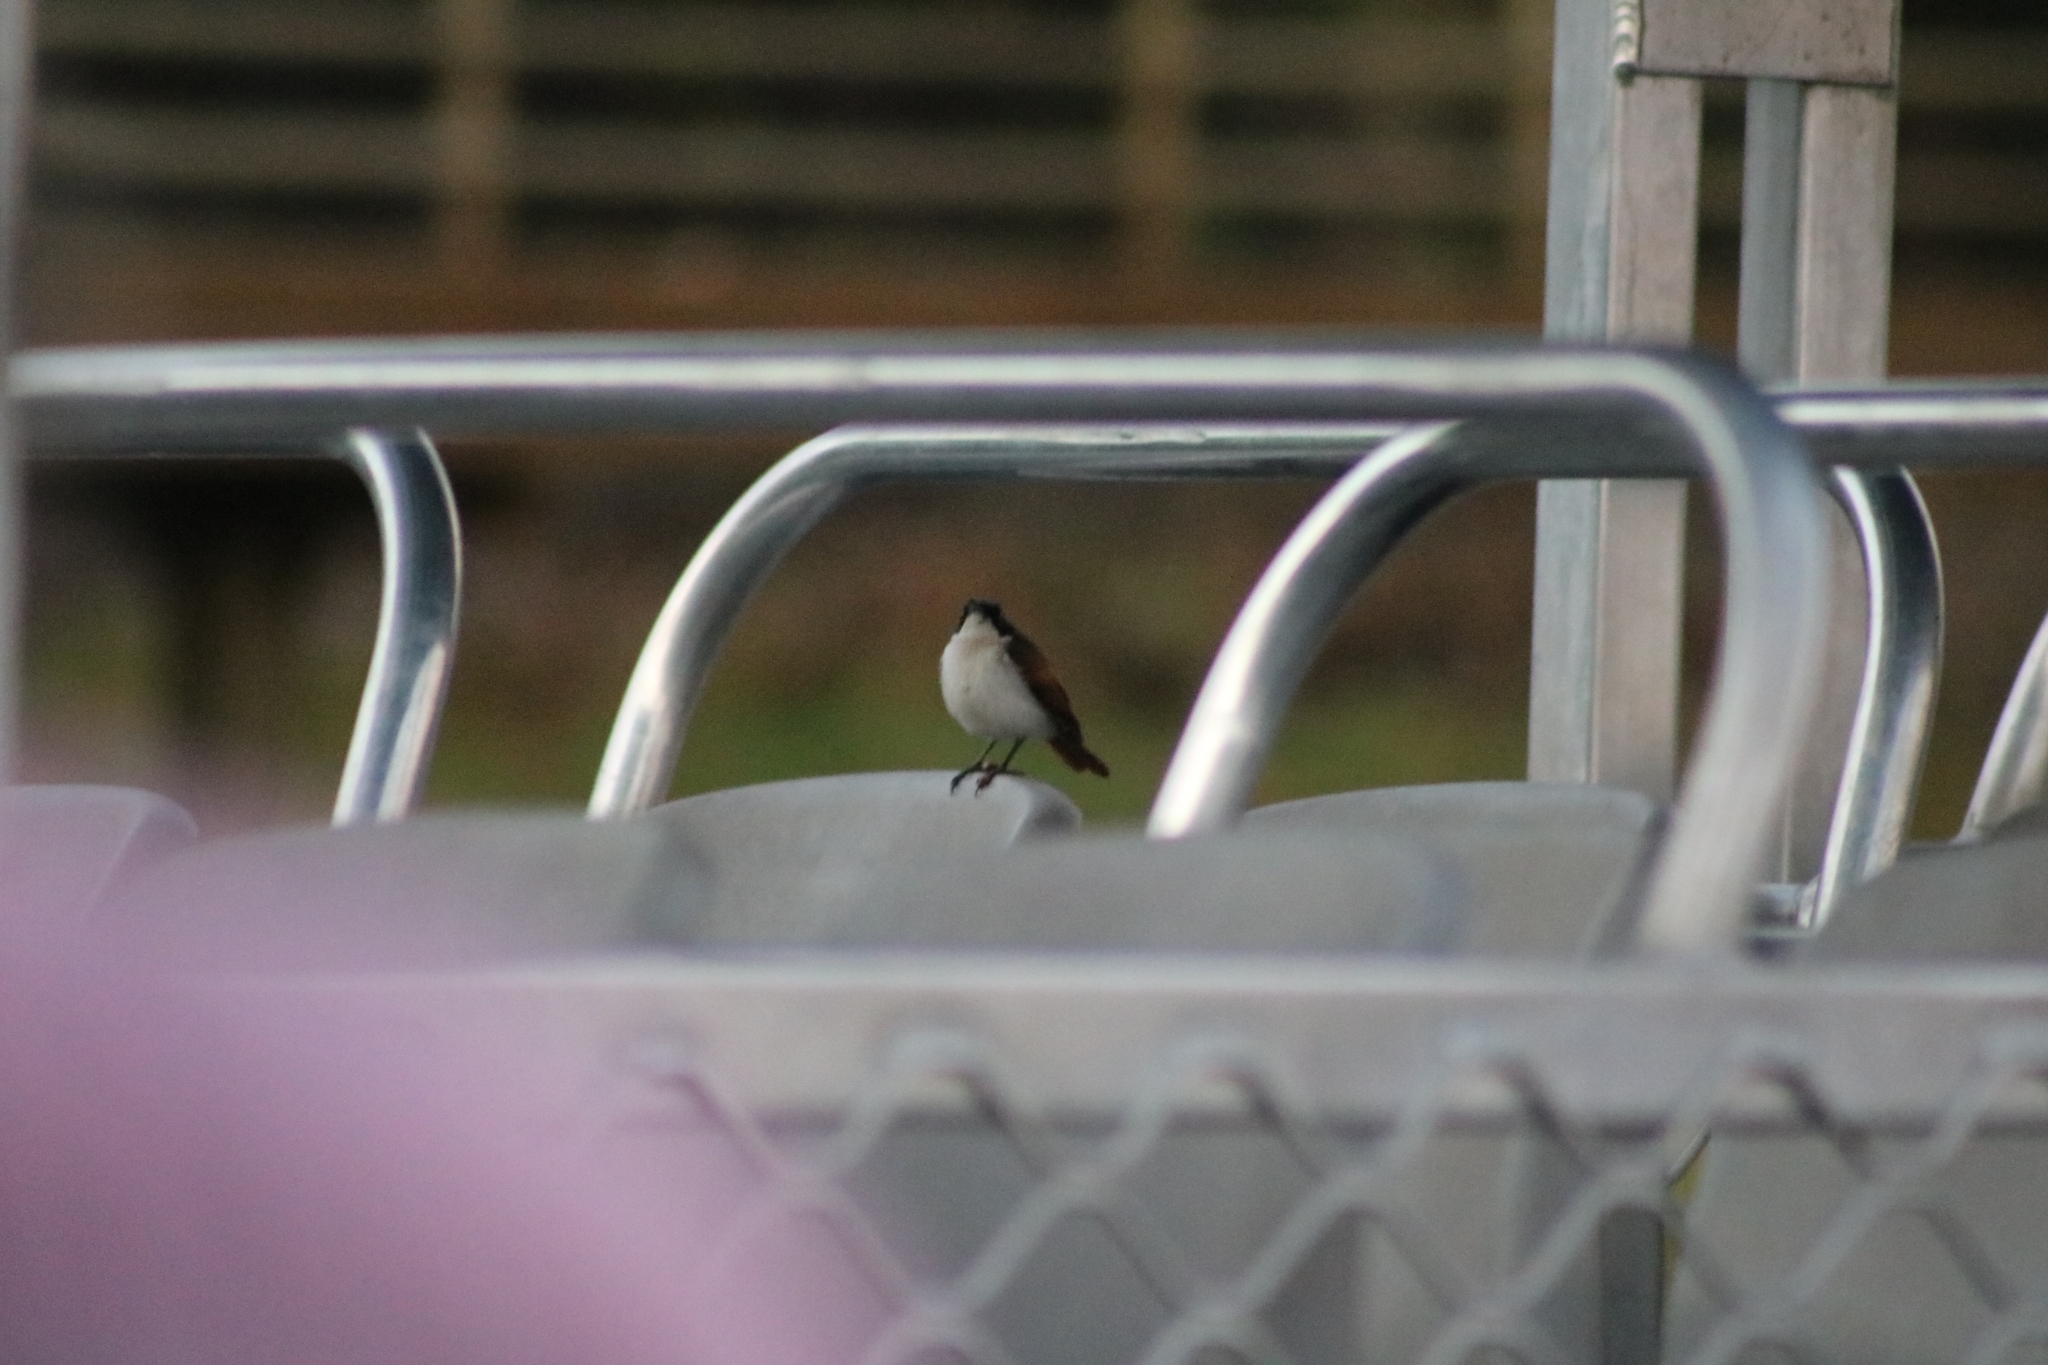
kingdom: Animalia
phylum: Chordata
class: Aves
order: Passeriformes
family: Monarchidae
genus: Myiagra
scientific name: Myiagra alecto
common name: Shining flycatcher
